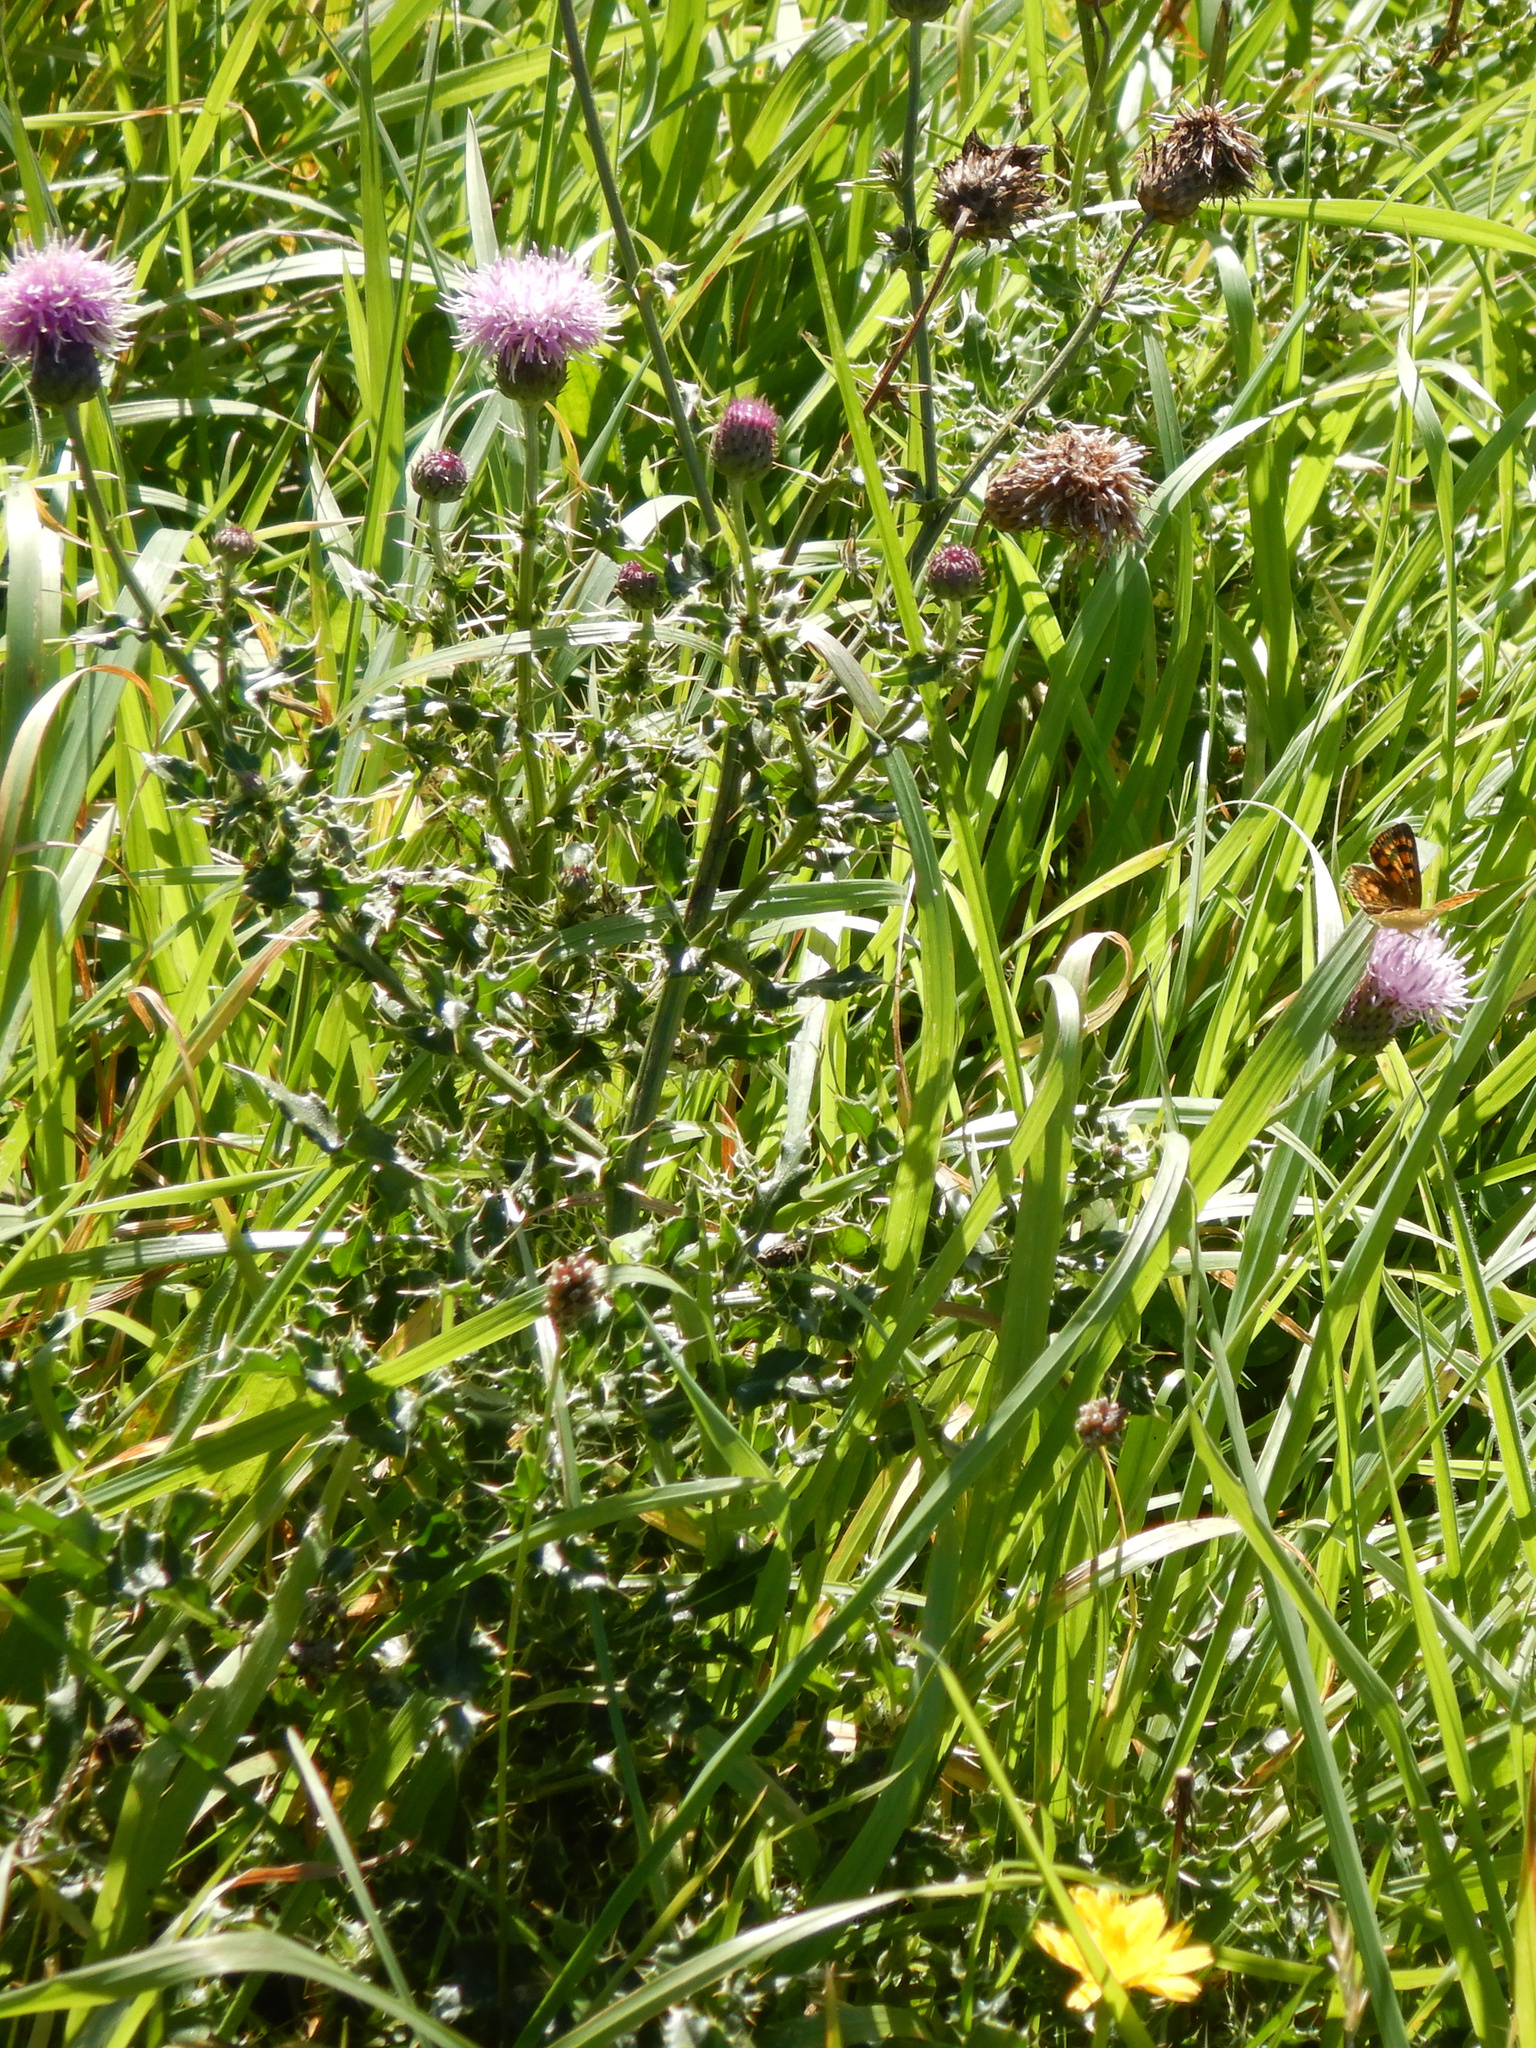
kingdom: Plantae
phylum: Tracheophyta
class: Magnoliopsida
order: Asterales
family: Asteraceae
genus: Cirsium
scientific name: Cirsium arvense
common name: Creeping thistle
